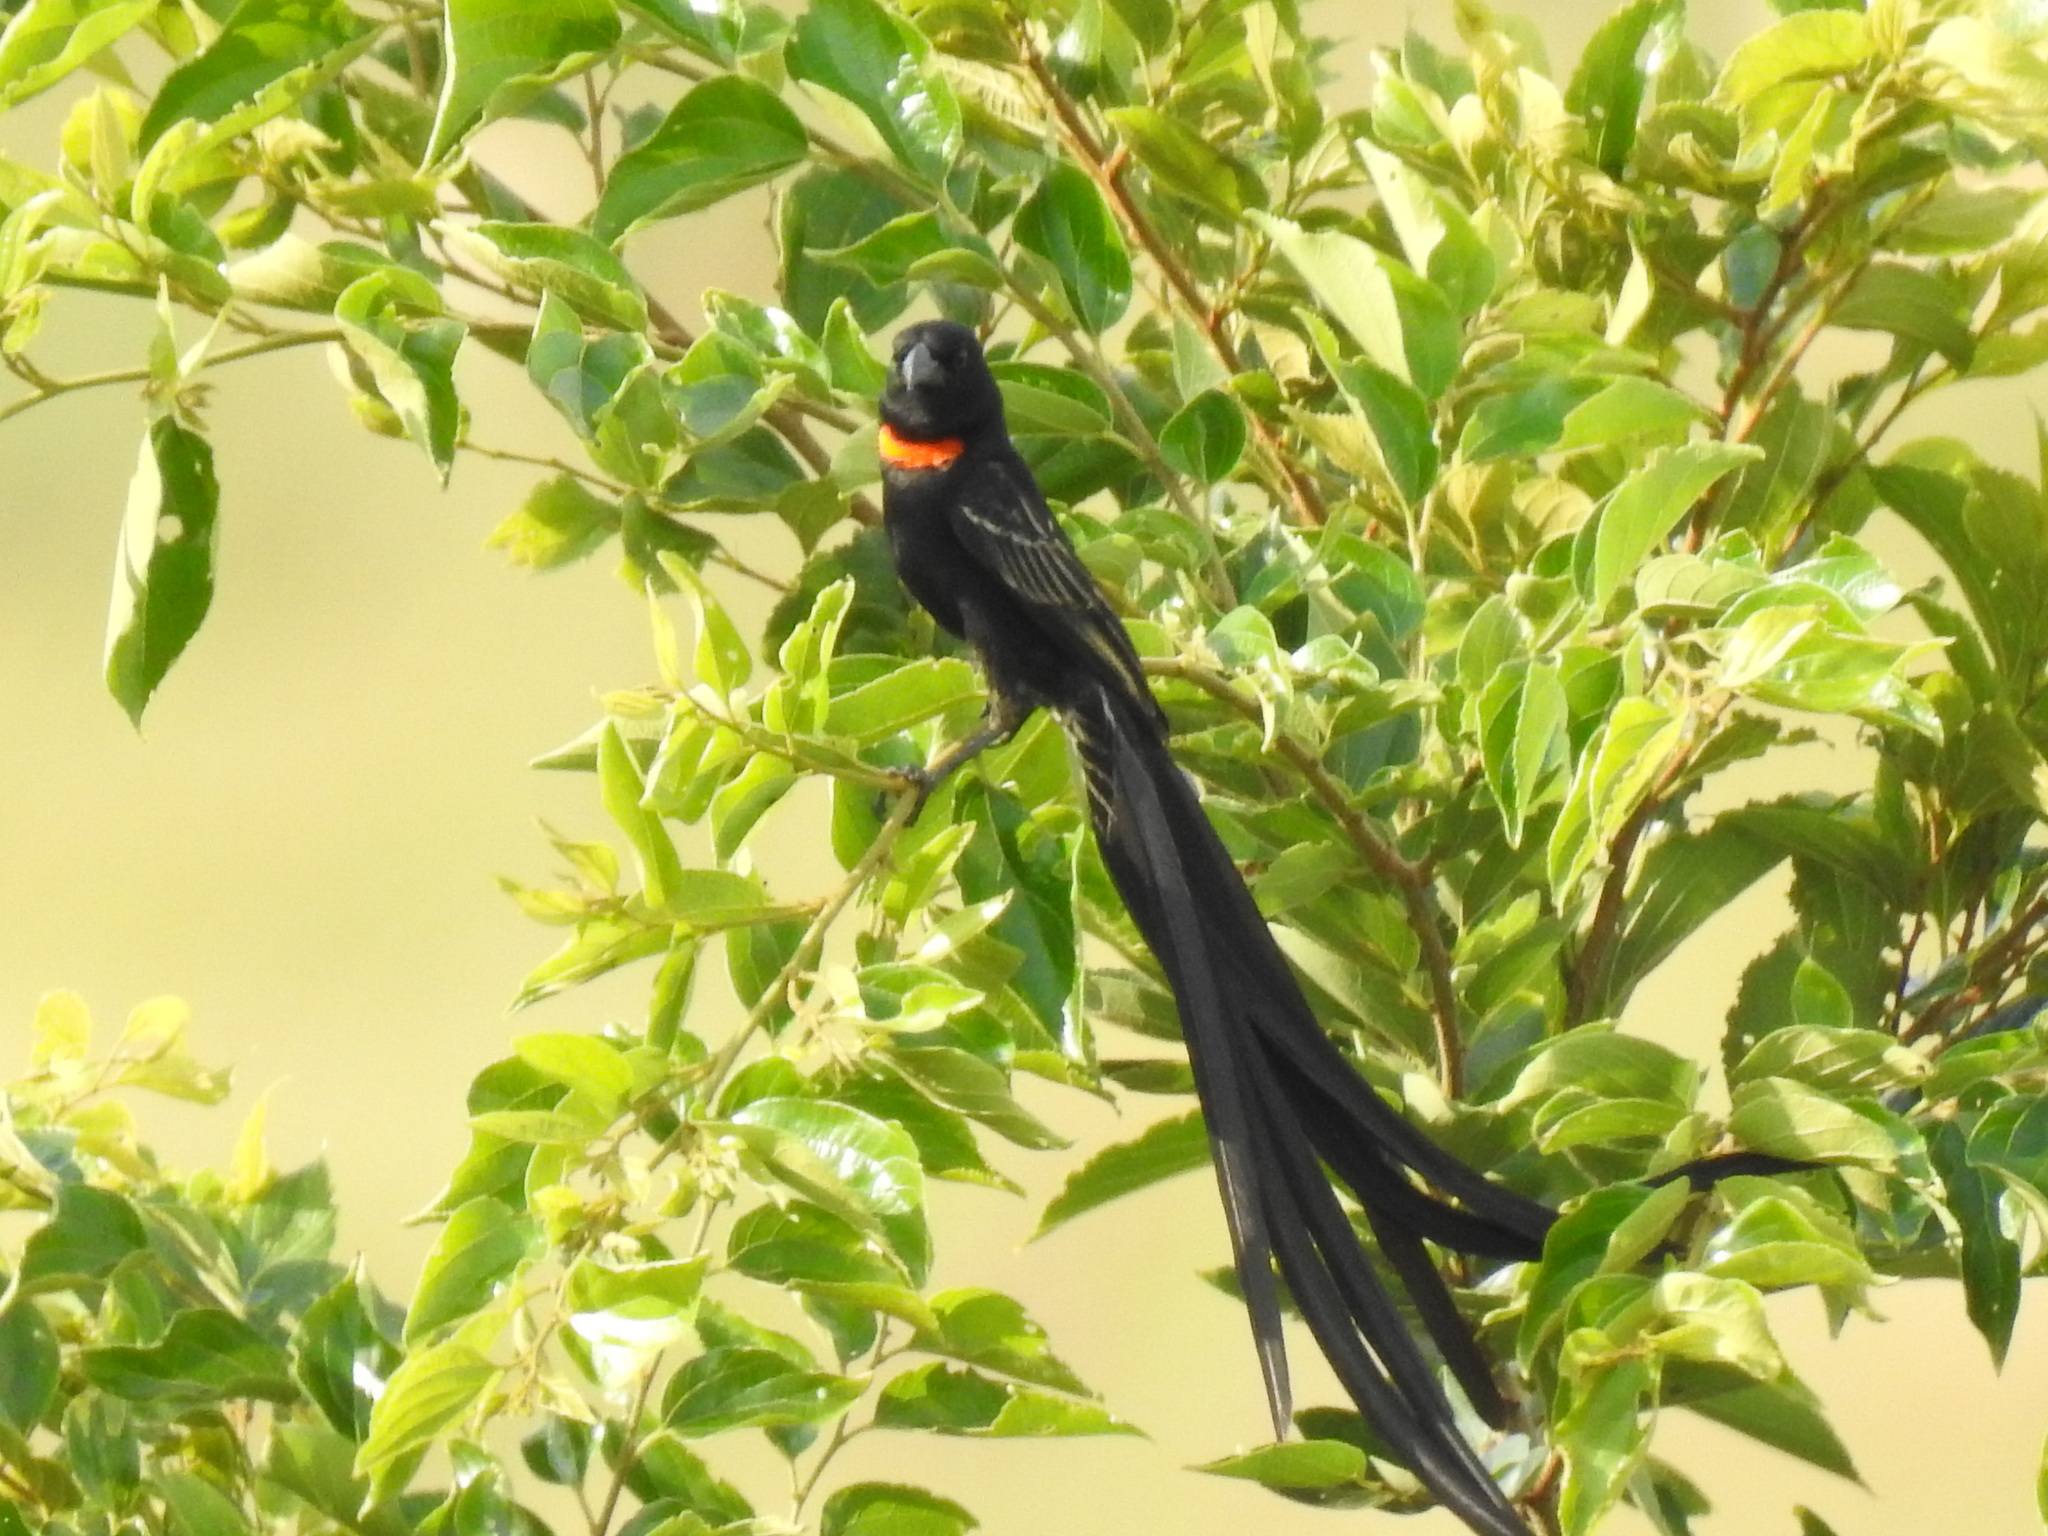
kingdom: Animalia
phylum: Chordata
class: Aves
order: Passeriformes
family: Ploceidae
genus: Euplectes
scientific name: Euplectes ardens
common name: Red-collared widowbird
